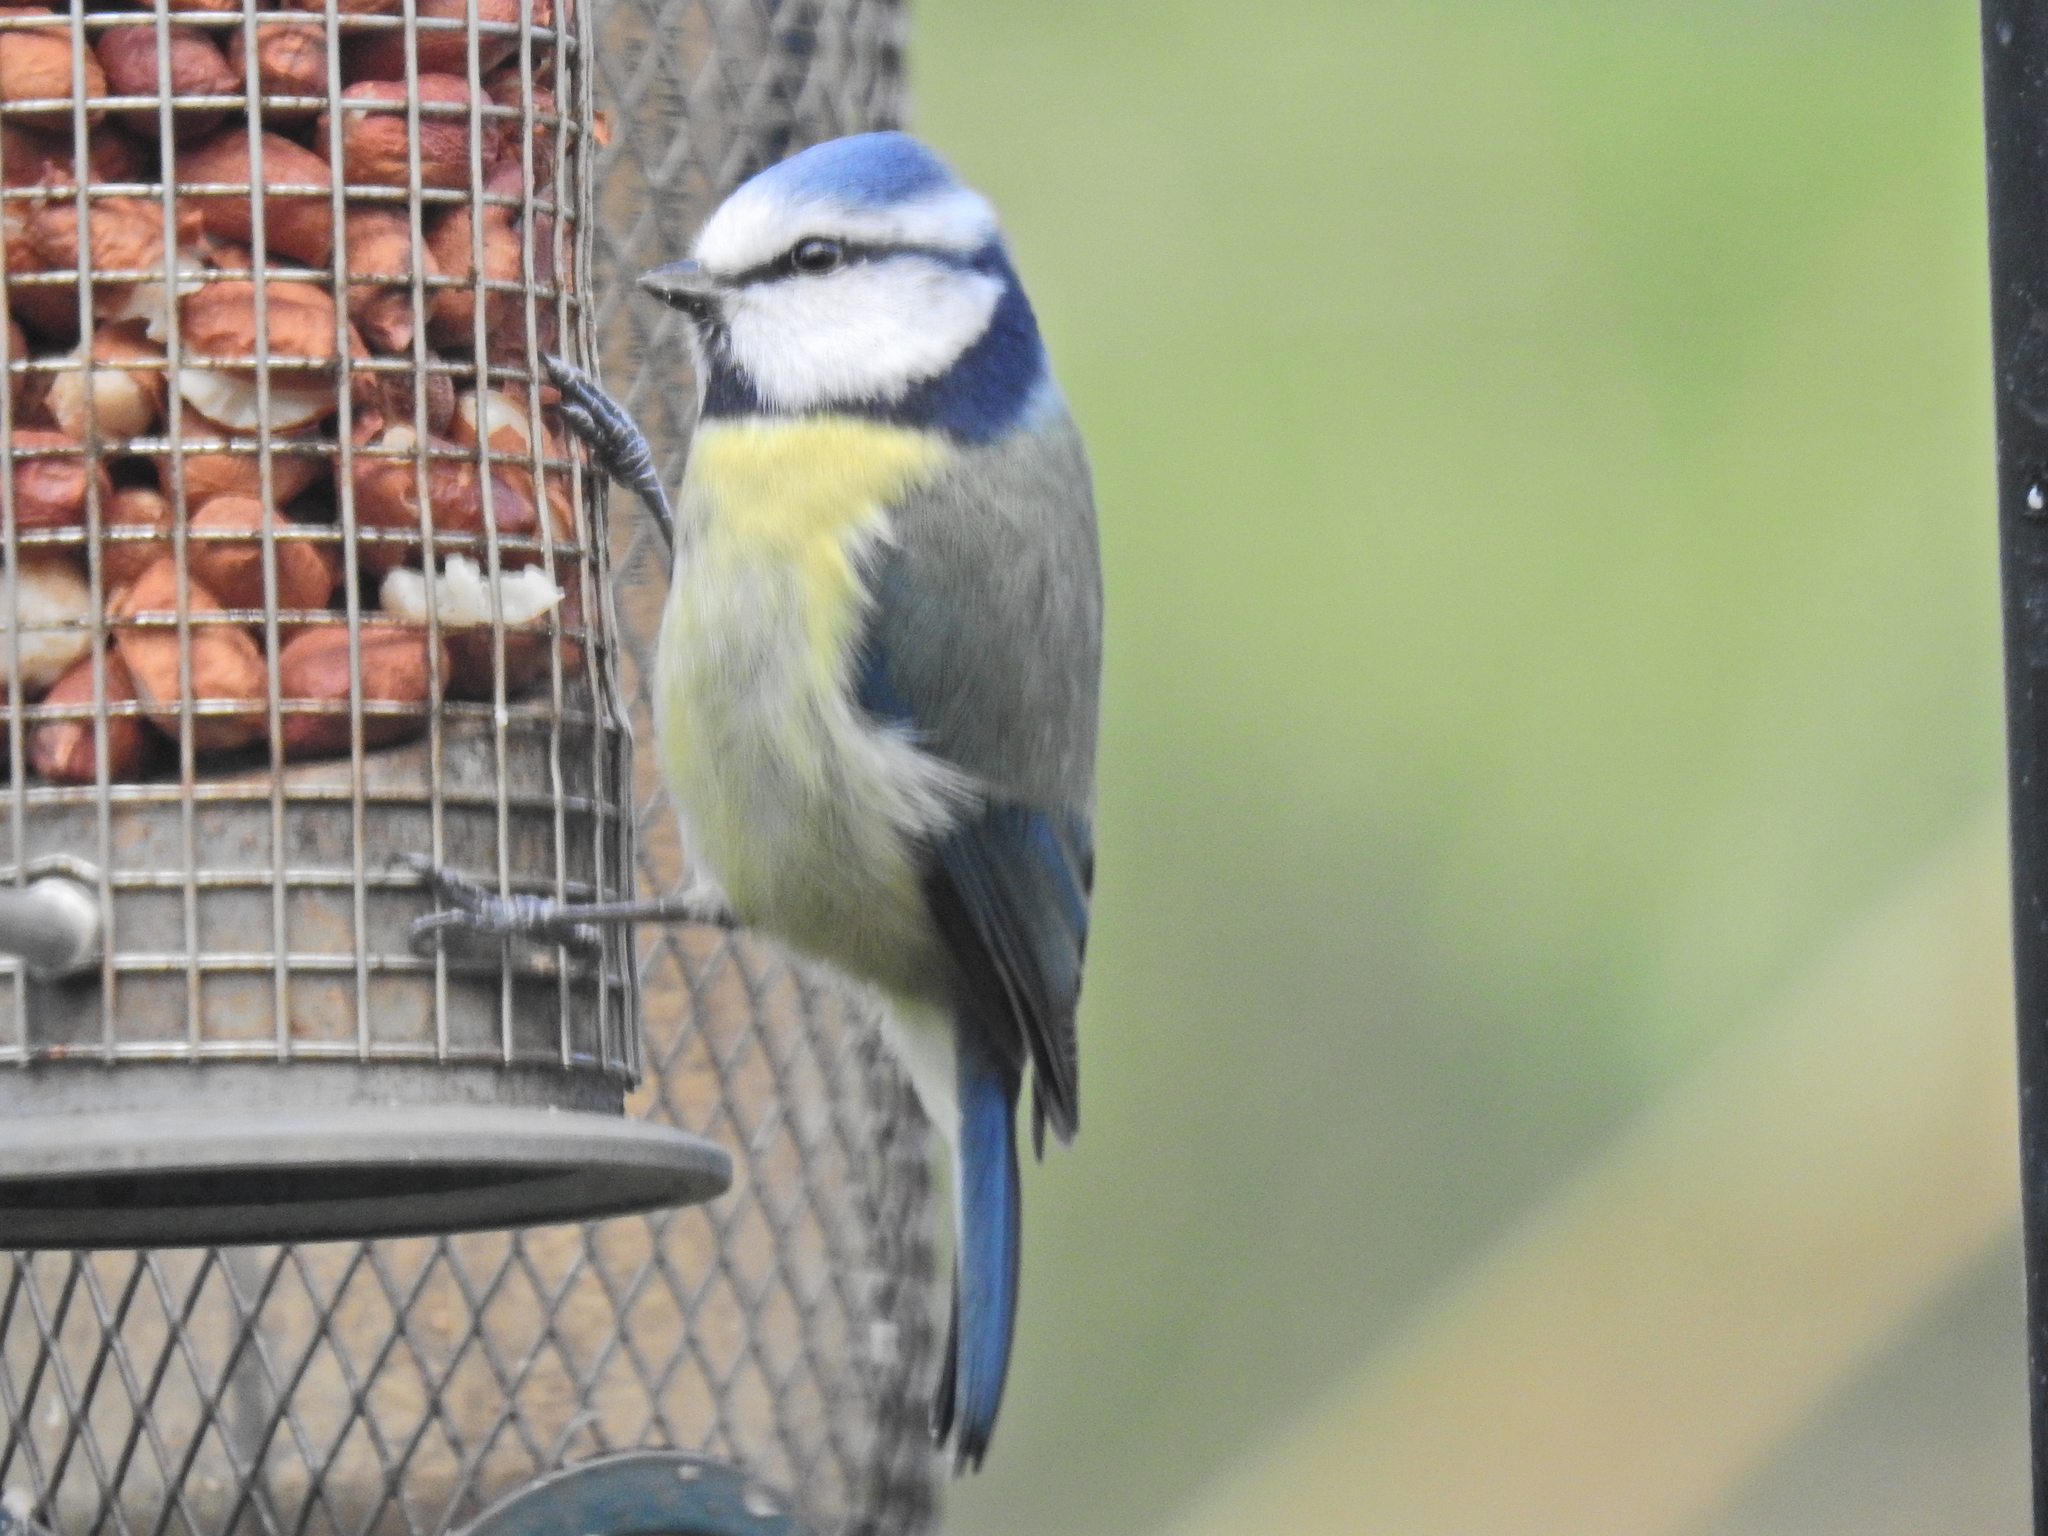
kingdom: Animalia
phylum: Chordata
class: Aves
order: Passeriformes
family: Paridae
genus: Cyanistes
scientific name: Cyanistes caeruleus
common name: Eurasian blue tit
